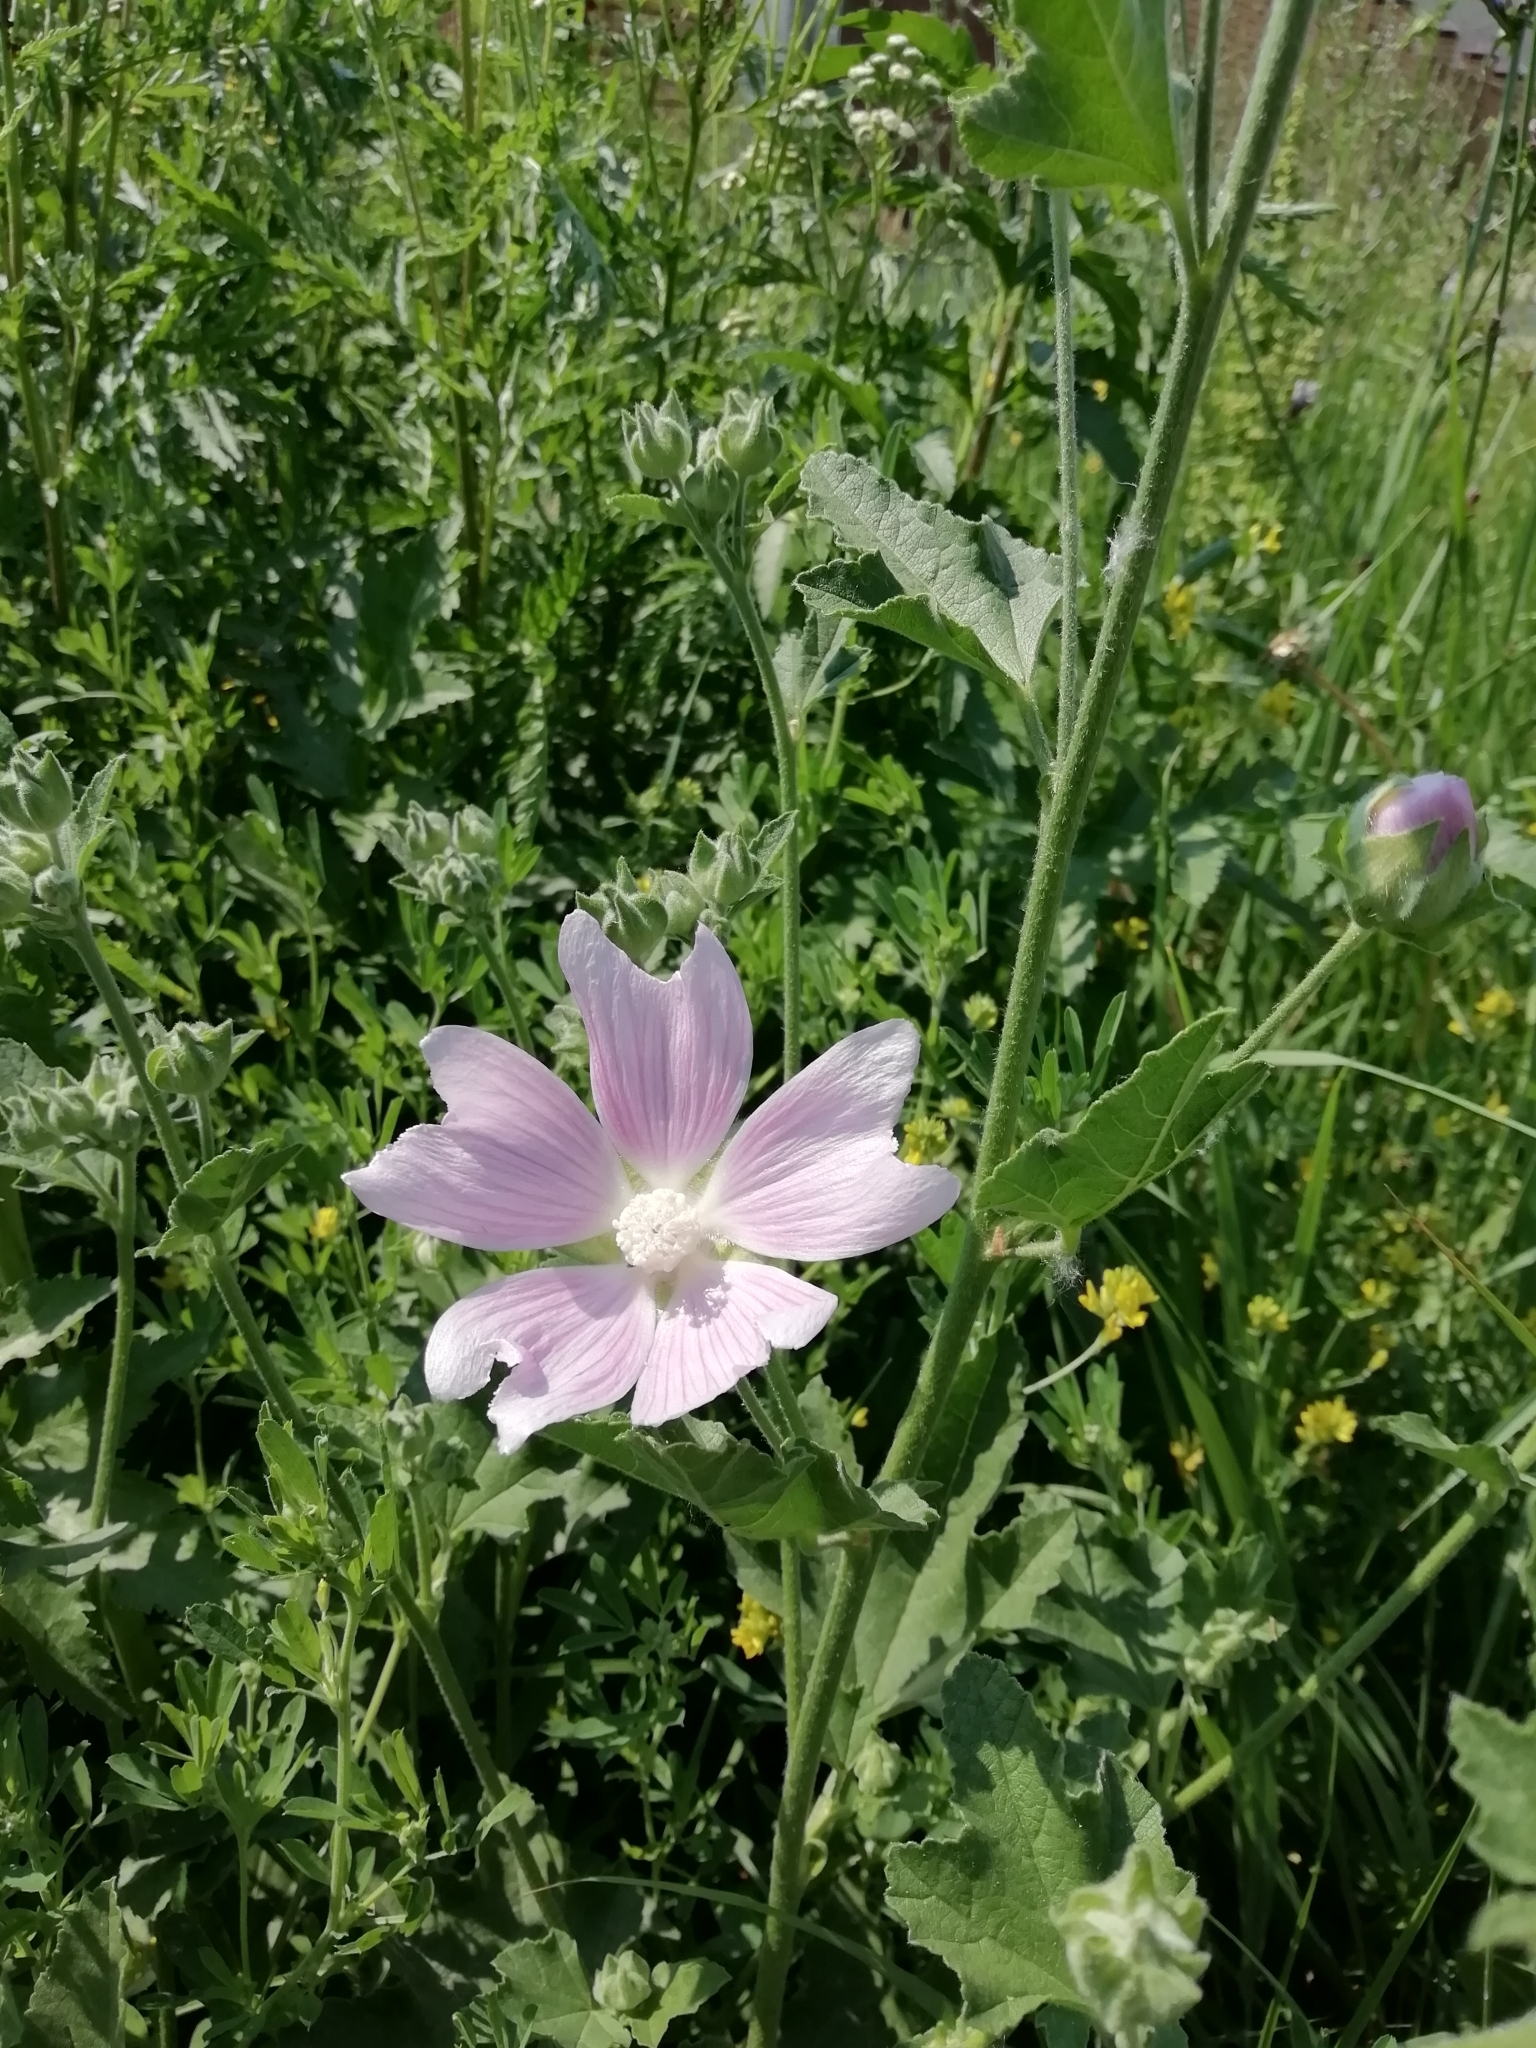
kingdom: Plantae
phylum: Tracheophyta
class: Magnoliopsida
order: Malvales
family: Malvaceae
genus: Malva
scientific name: Malva thuringiaca
